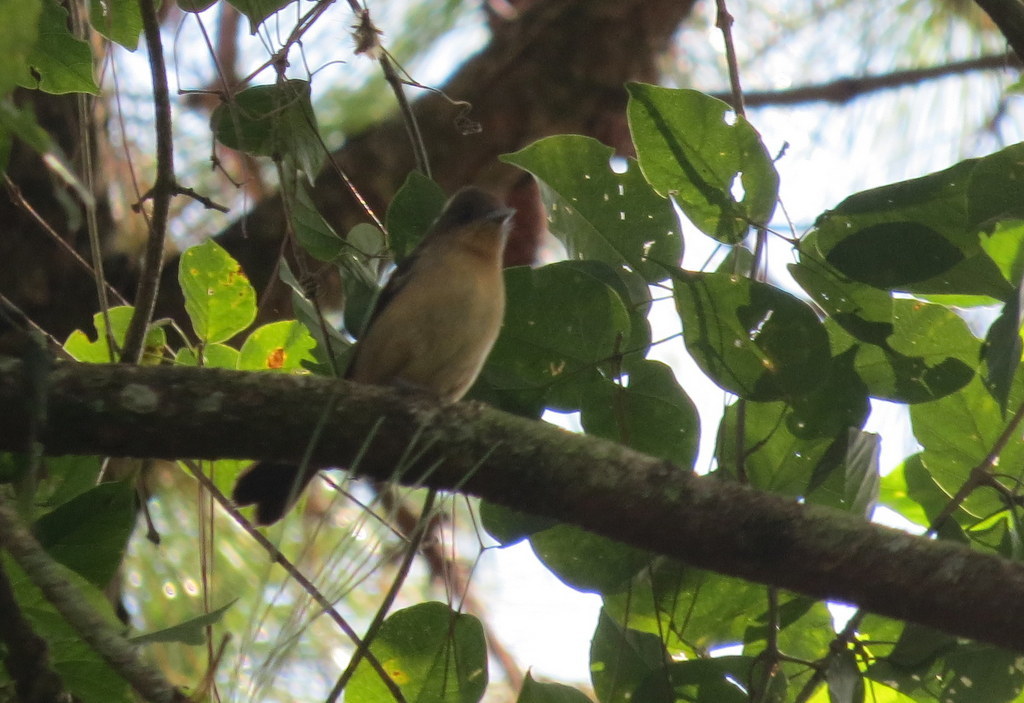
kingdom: Animalia
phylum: Chordata
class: Aves
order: Passeriformes
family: Thraupidae
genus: Trichothraupis
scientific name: Trichothraupis melanops
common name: Black-goggled tanager
